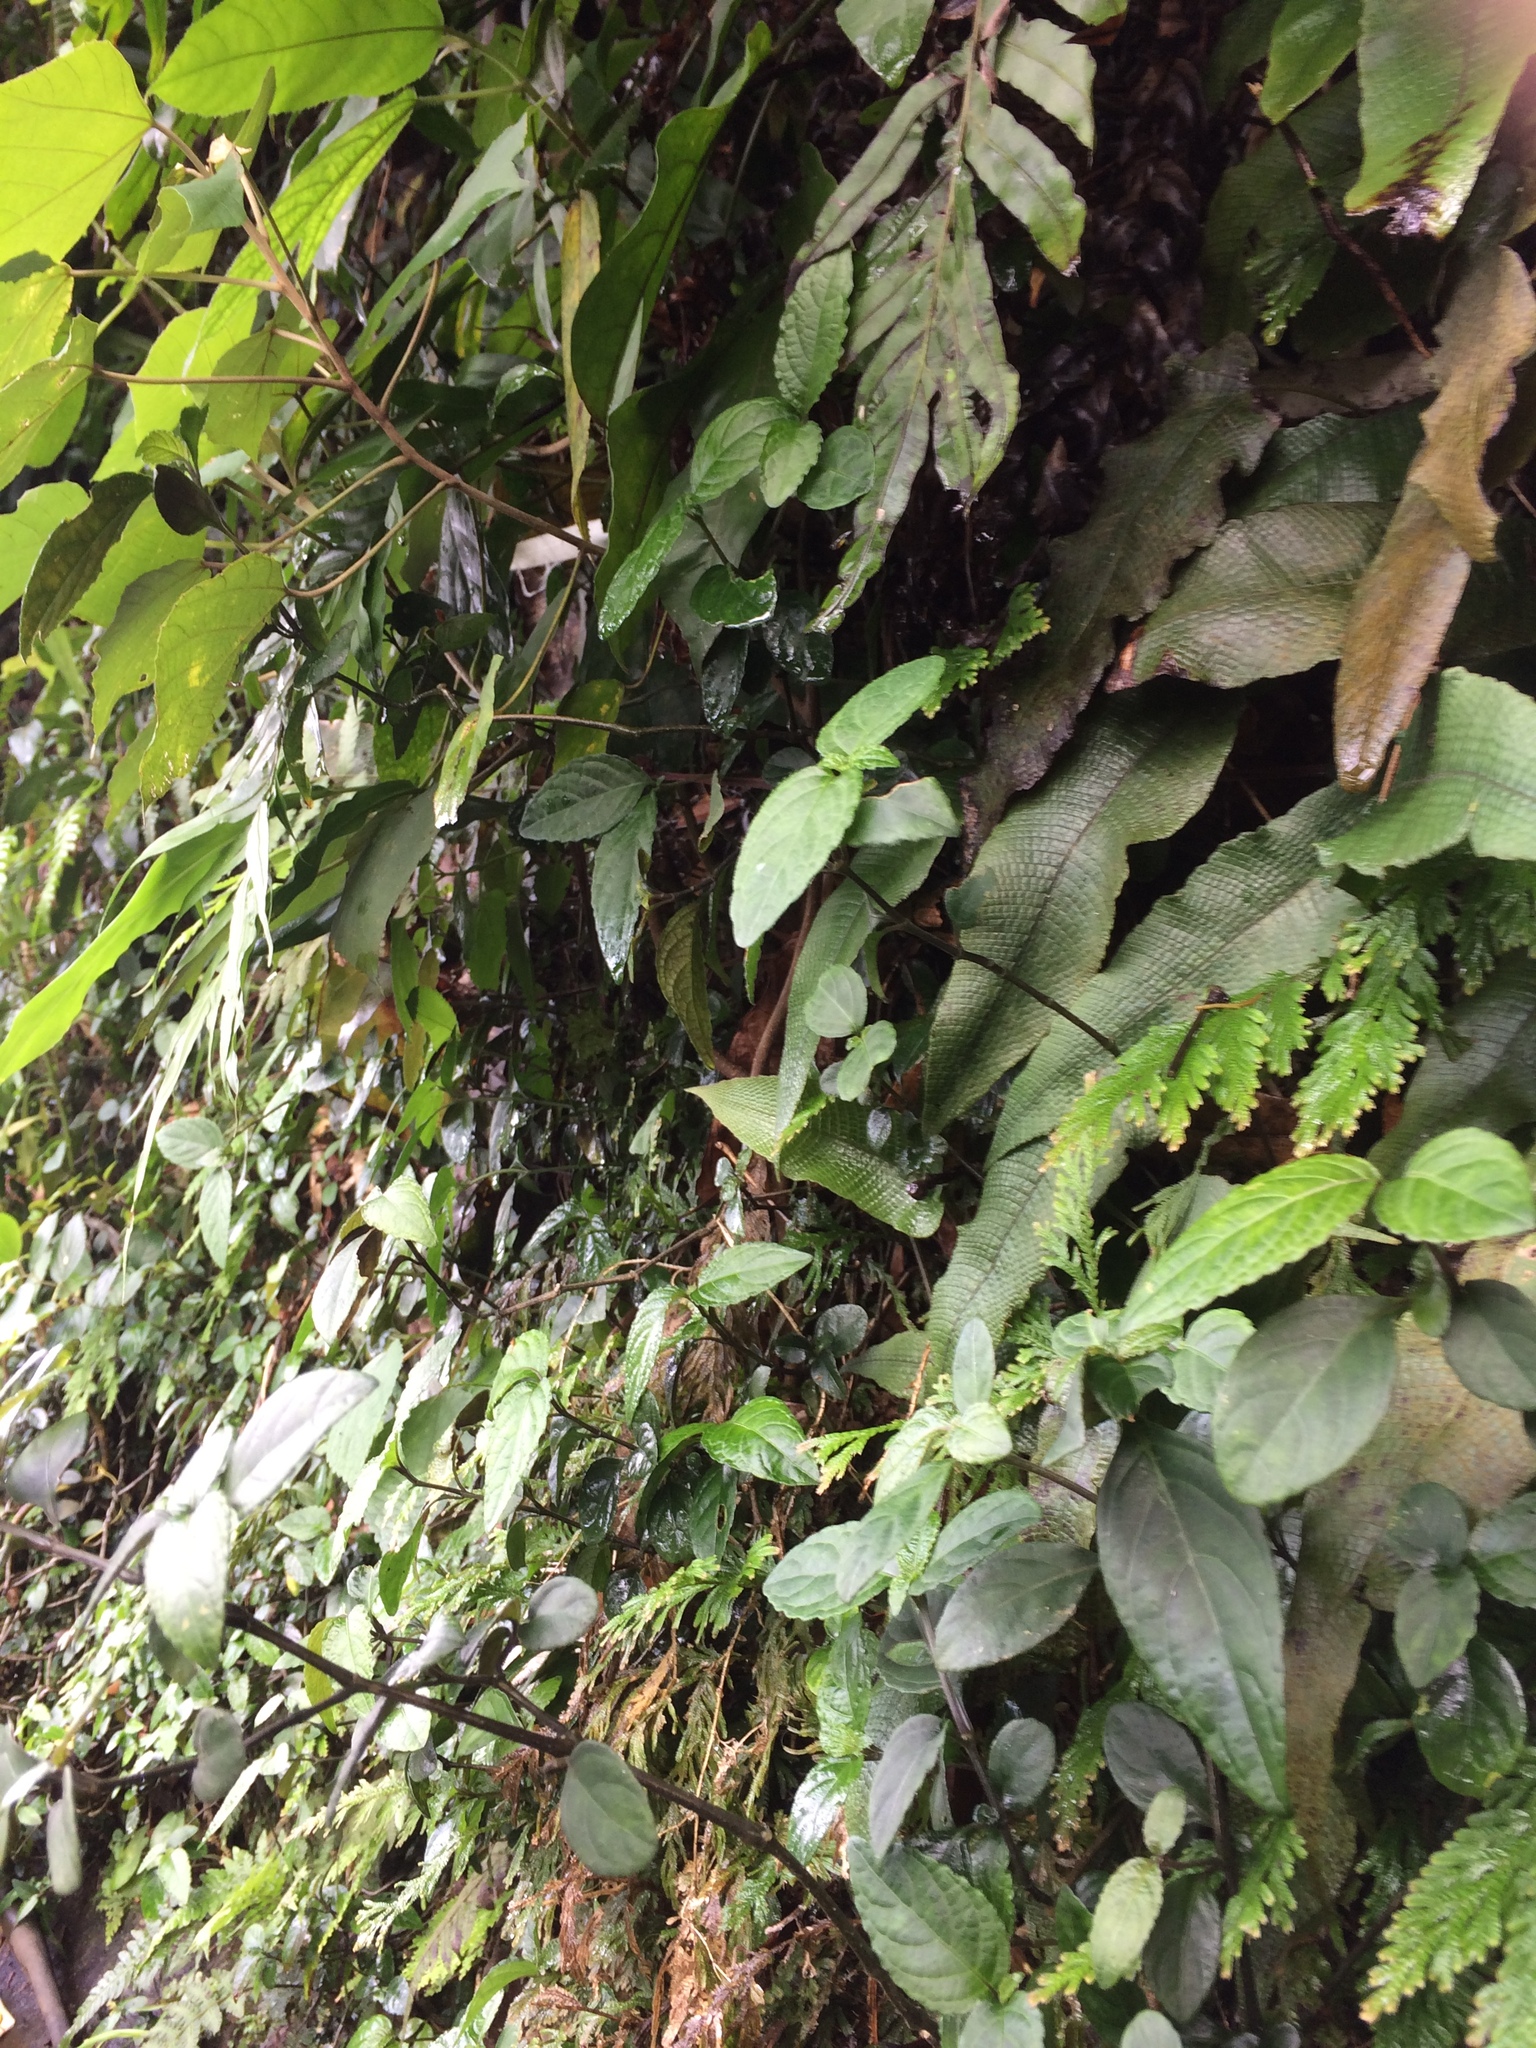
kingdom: Plantae
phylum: Tracheophyta
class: Polypodiopsida
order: Polypodiales
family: Thelypteridaceae
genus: Grypothrix
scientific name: Grypothrix simplex
